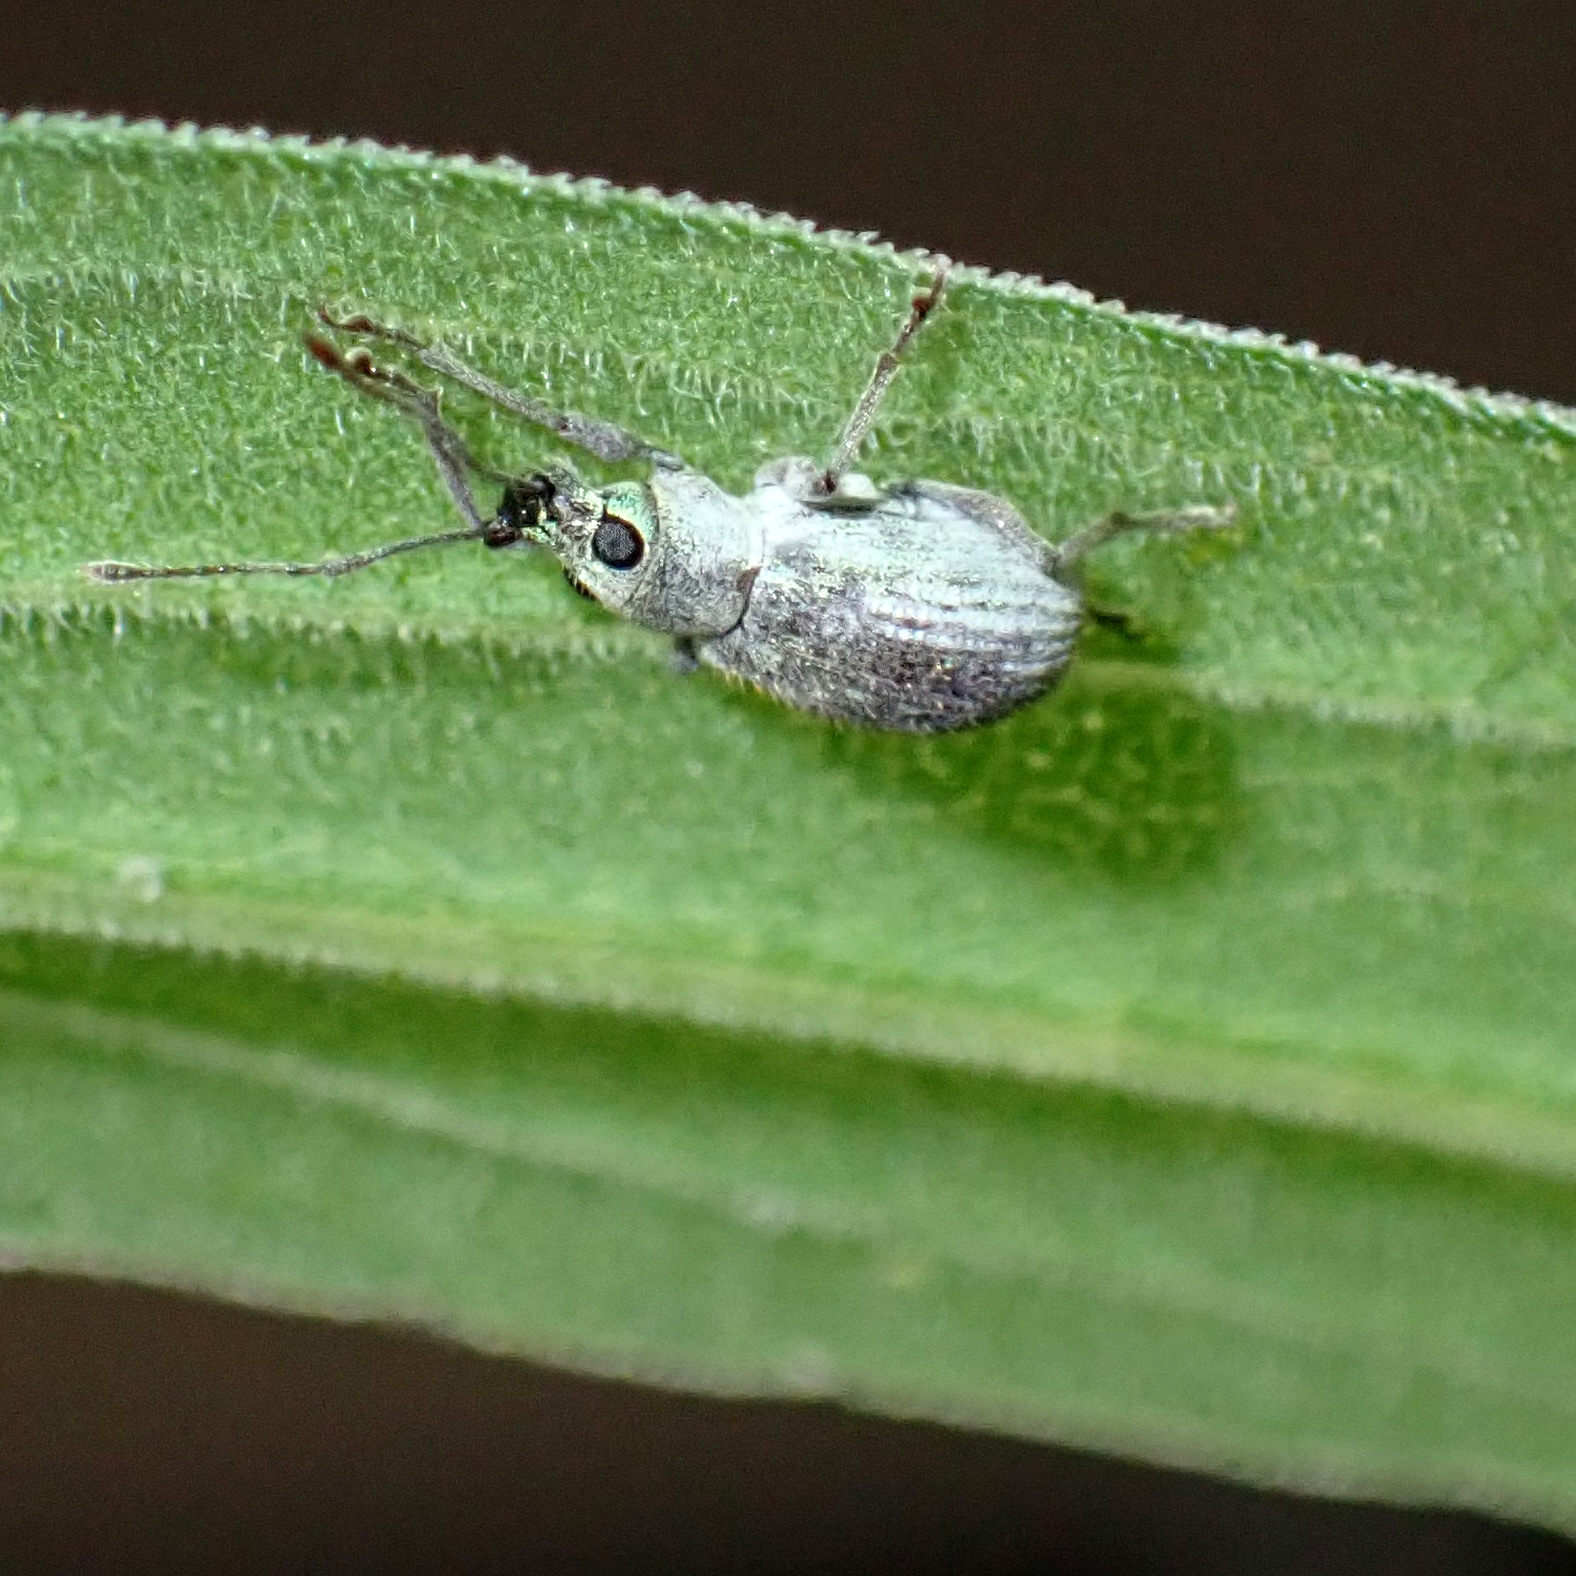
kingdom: Animalia
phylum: Arthropoda
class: Insecta
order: Coleoptera
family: Curculionidae
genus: Cyrtepistomus
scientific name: Cyrtepistomus castaneus
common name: Weevil
